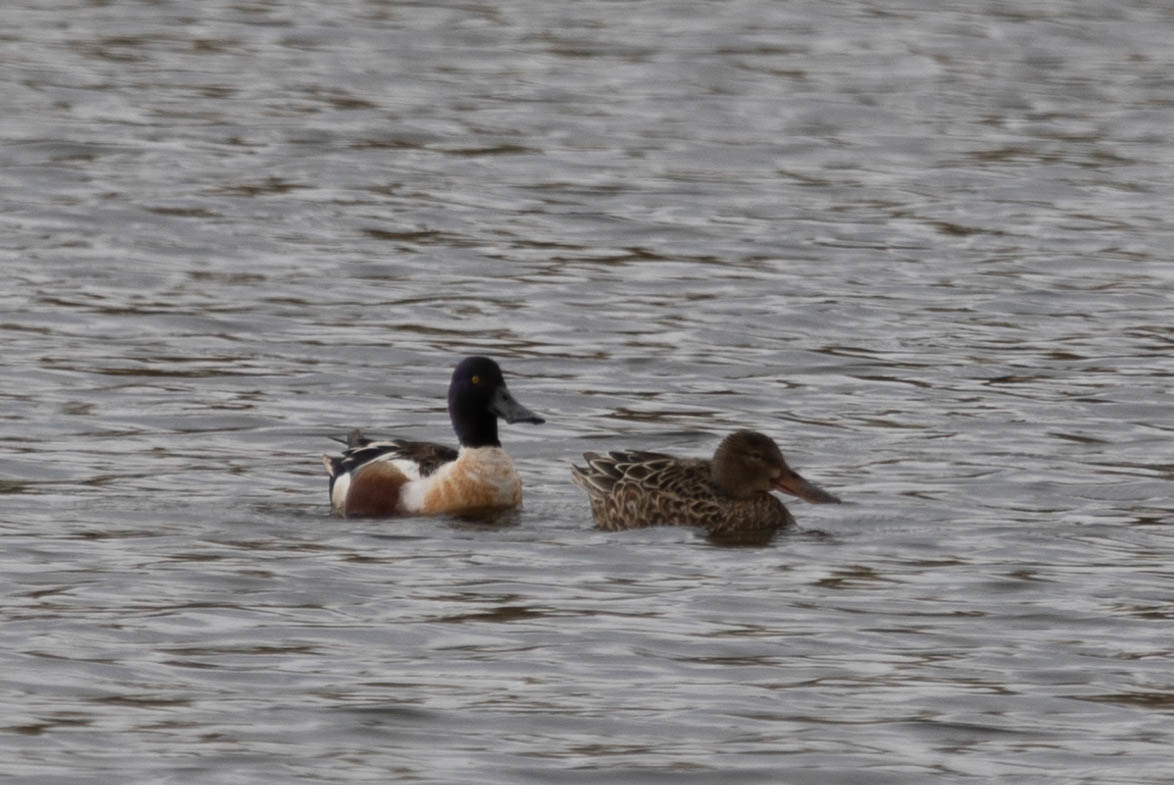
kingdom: Animalia
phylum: Chordata
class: Aves
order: Anseriformes
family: Anatidae
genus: Spatula
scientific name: Spatula clypeata
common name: Northern shoveler
